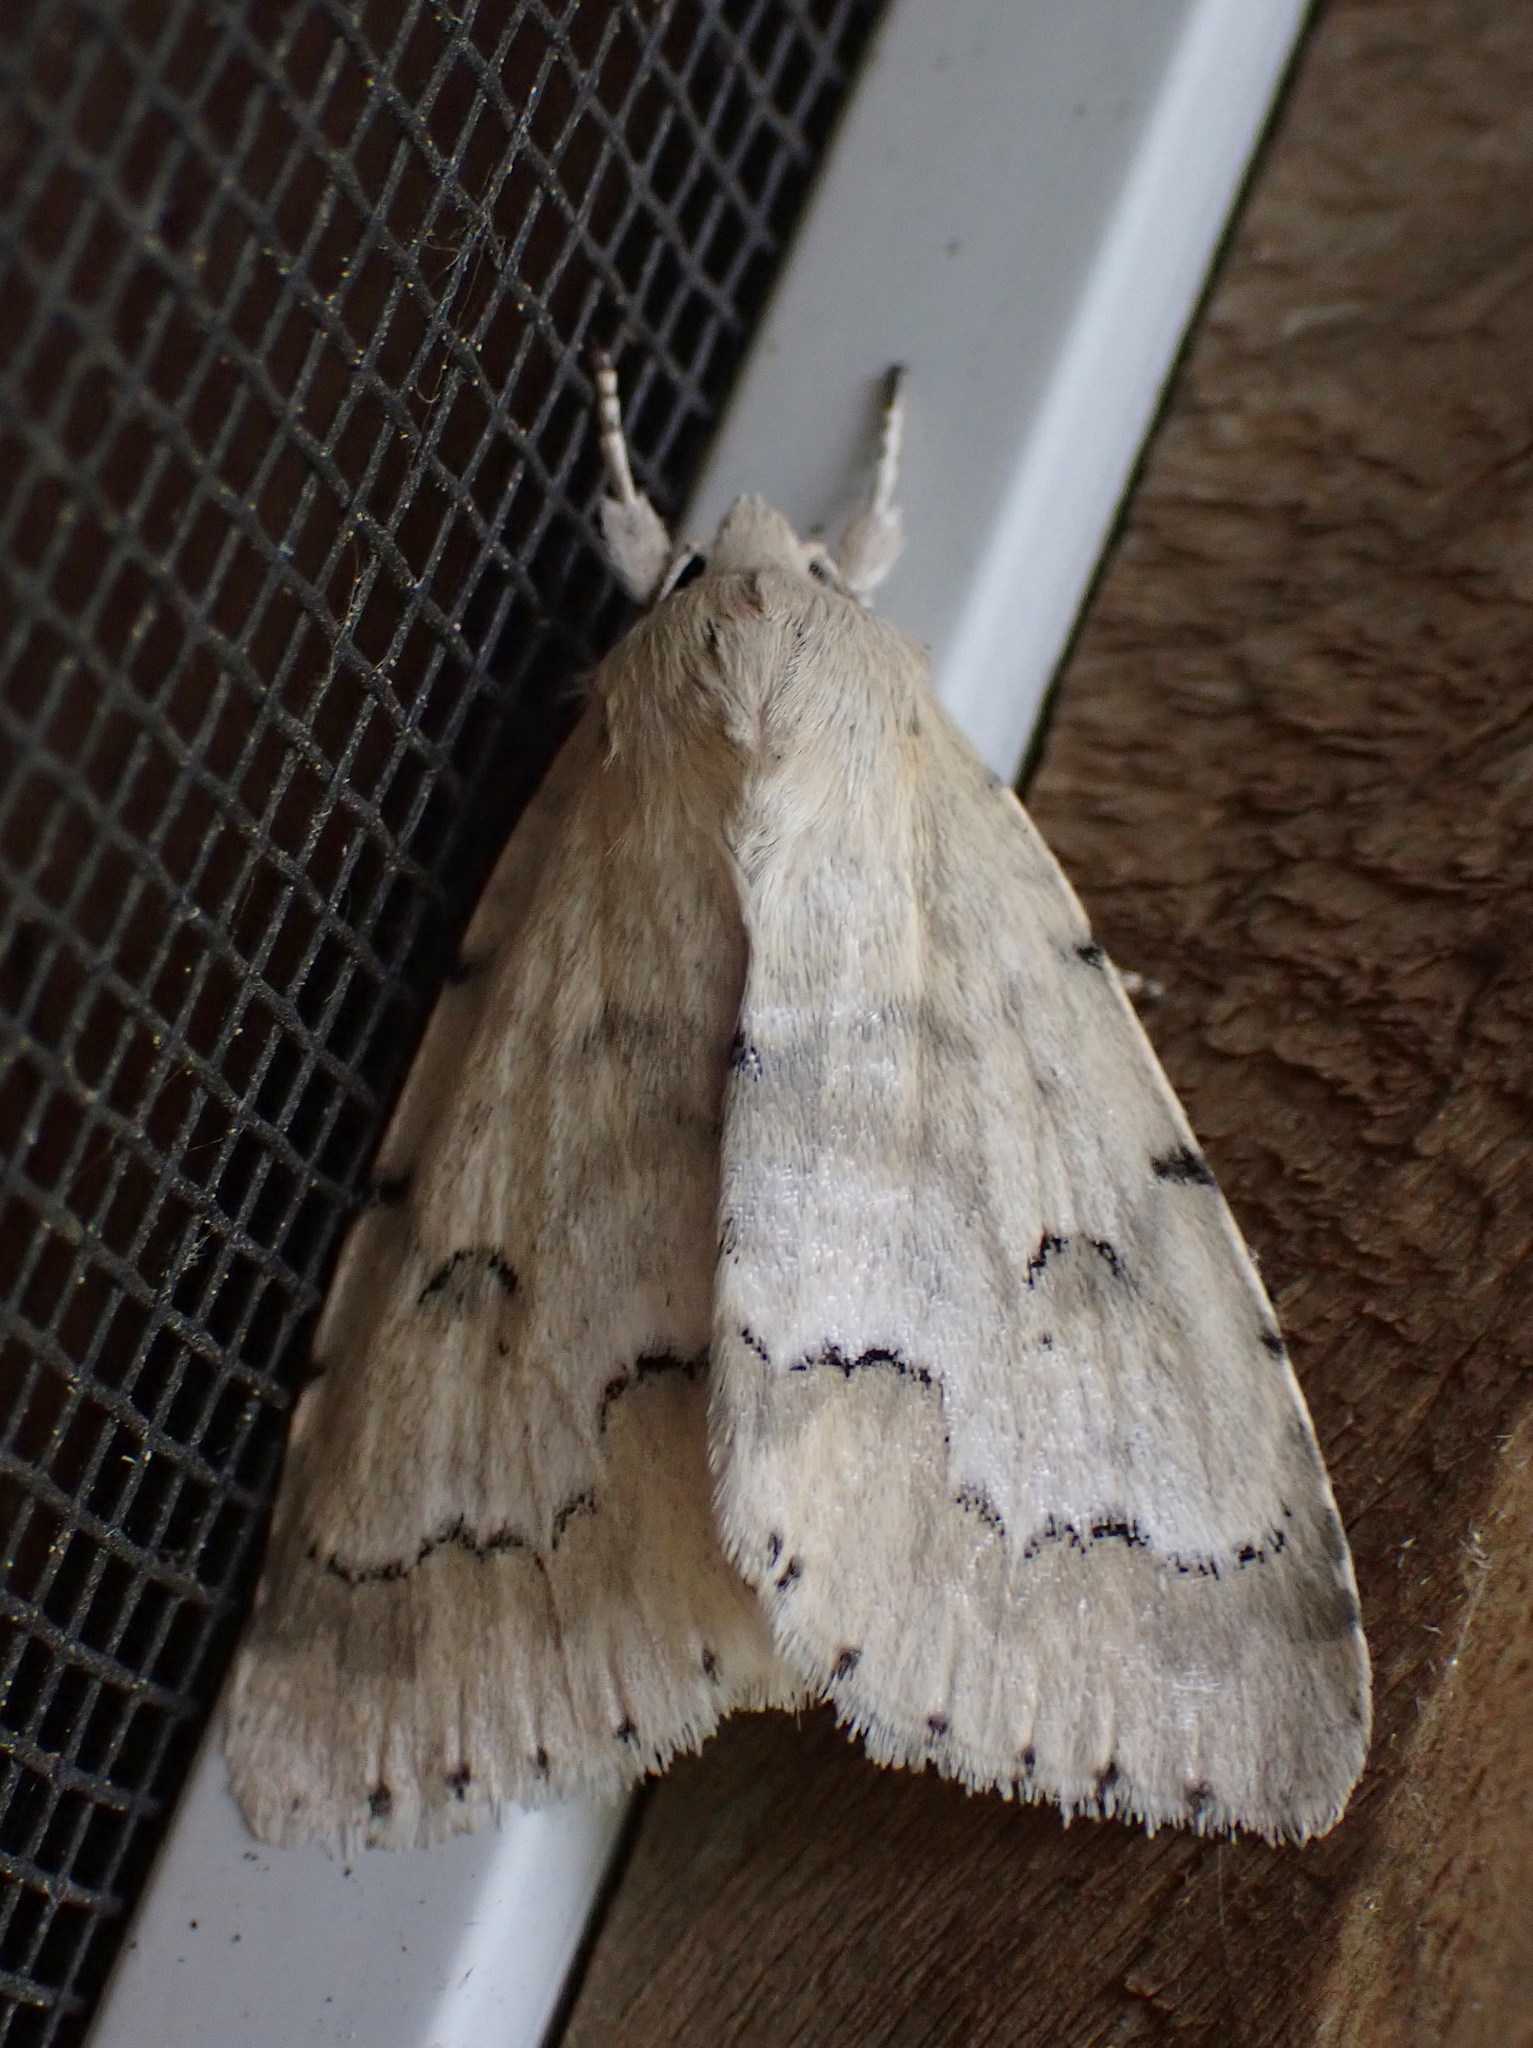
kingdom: Animalia
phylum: Arthropoda
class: Insecta
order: Lepidoptera
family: Noctuidae
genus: Acronicta
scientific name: Acronicta innotata
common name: Unmarked dagger
